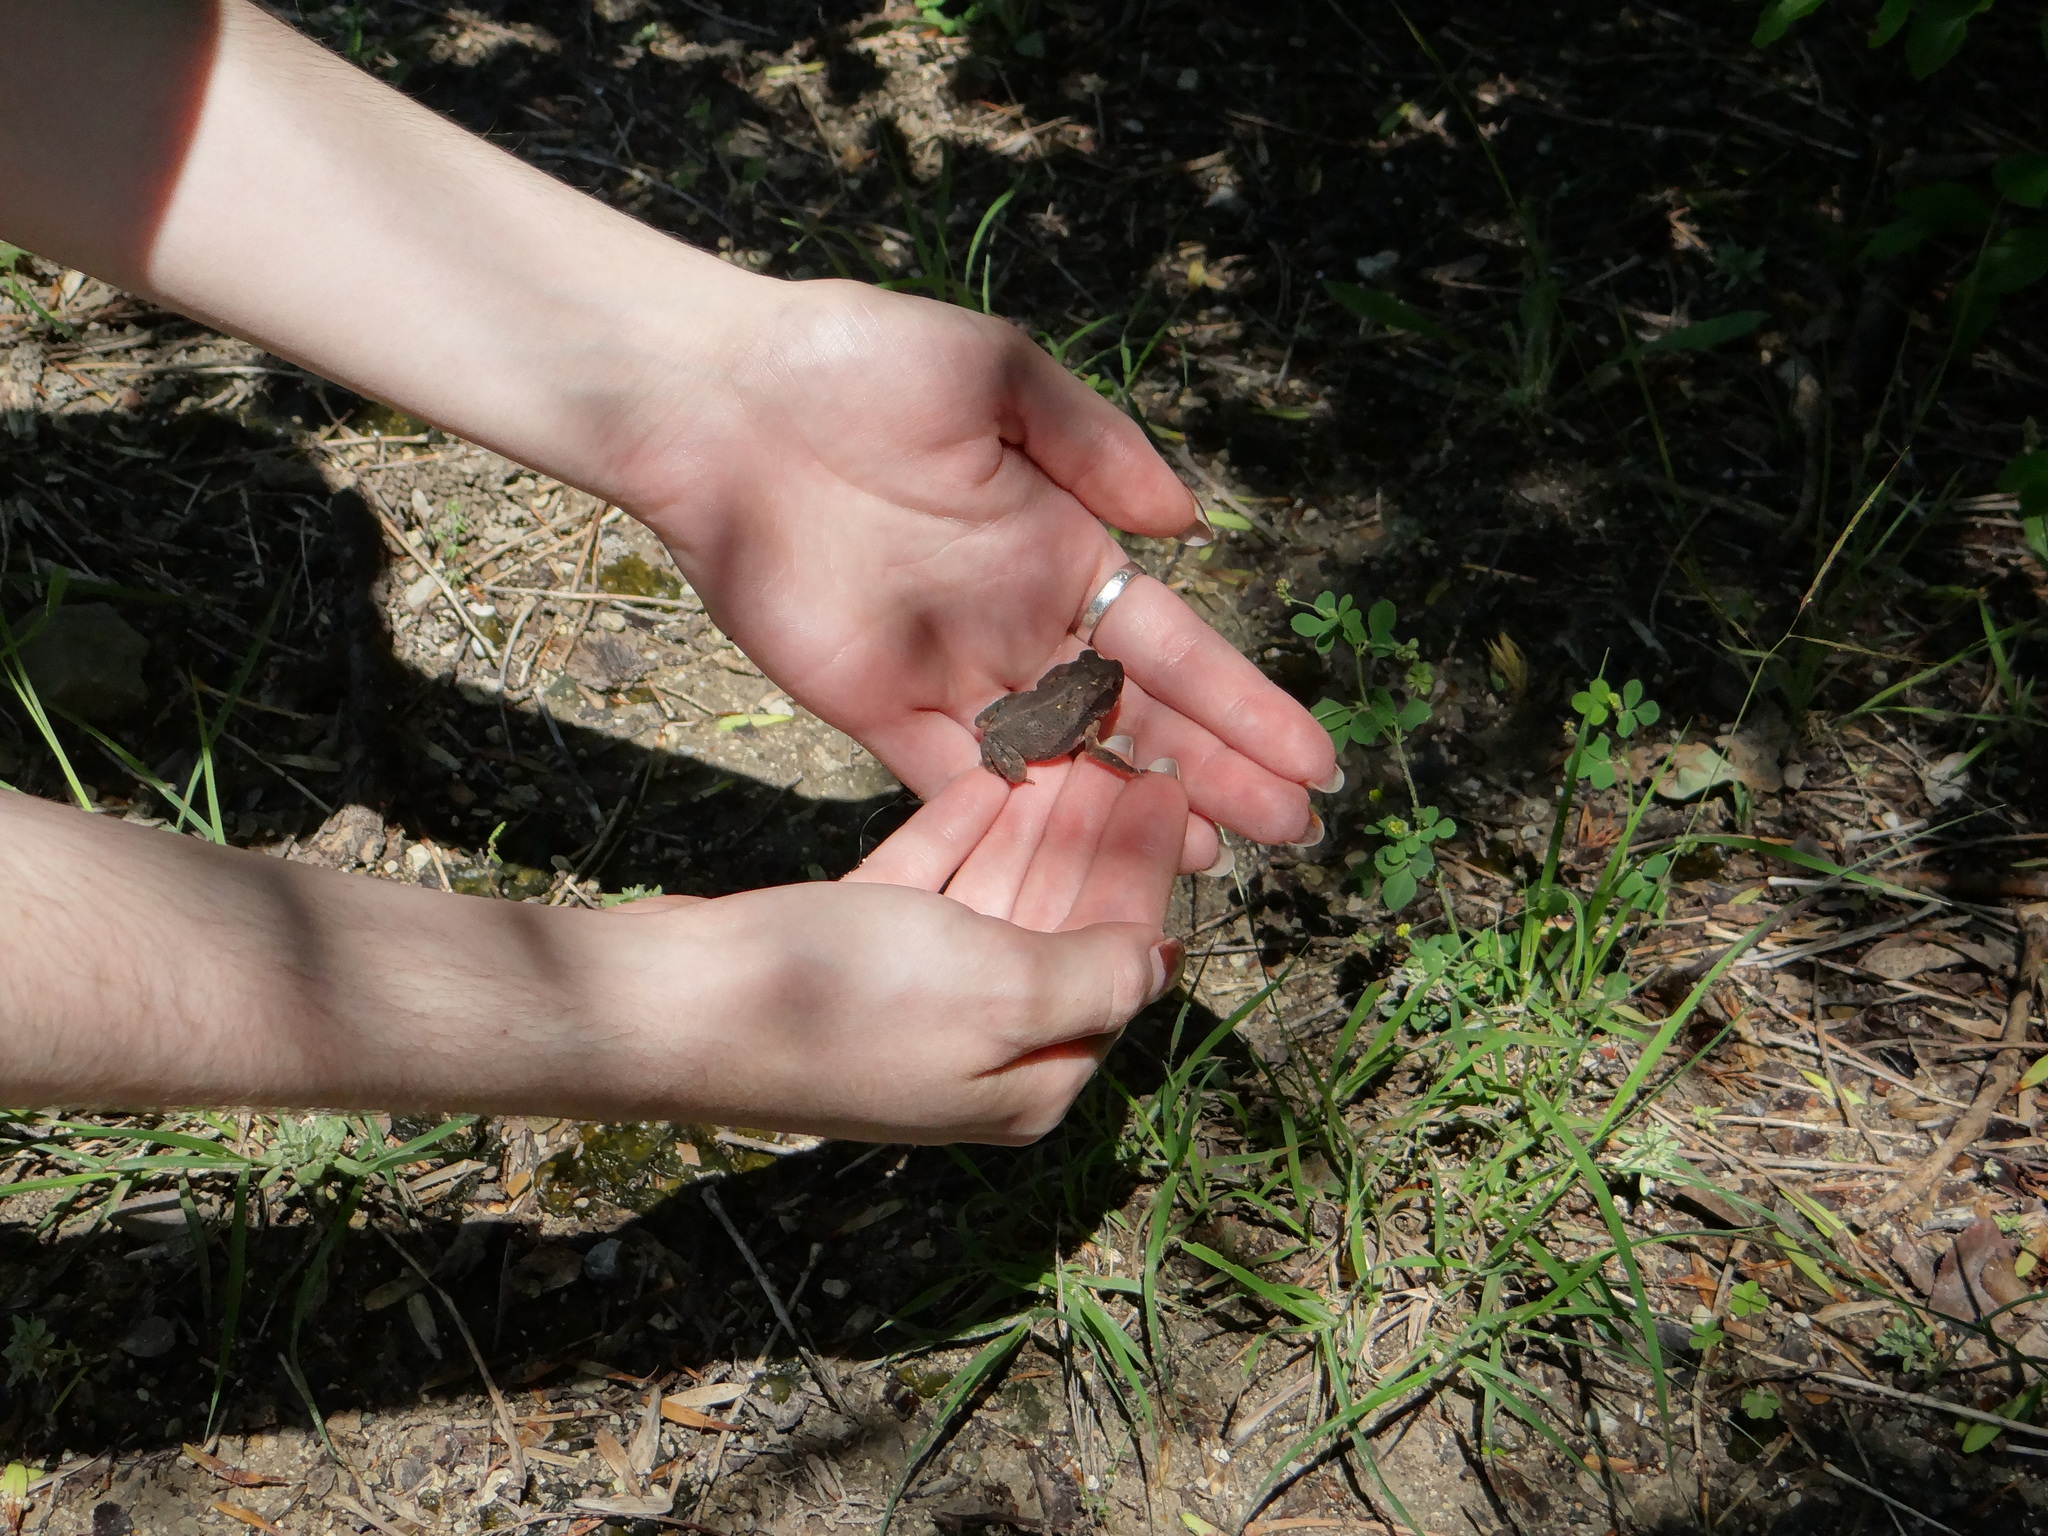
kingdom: Animalia
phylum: Chordata
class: Amphibia
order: Anura
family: Bufonidae
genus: Incilius
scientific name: Incilius nebulifer
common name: Gulf coast toad
